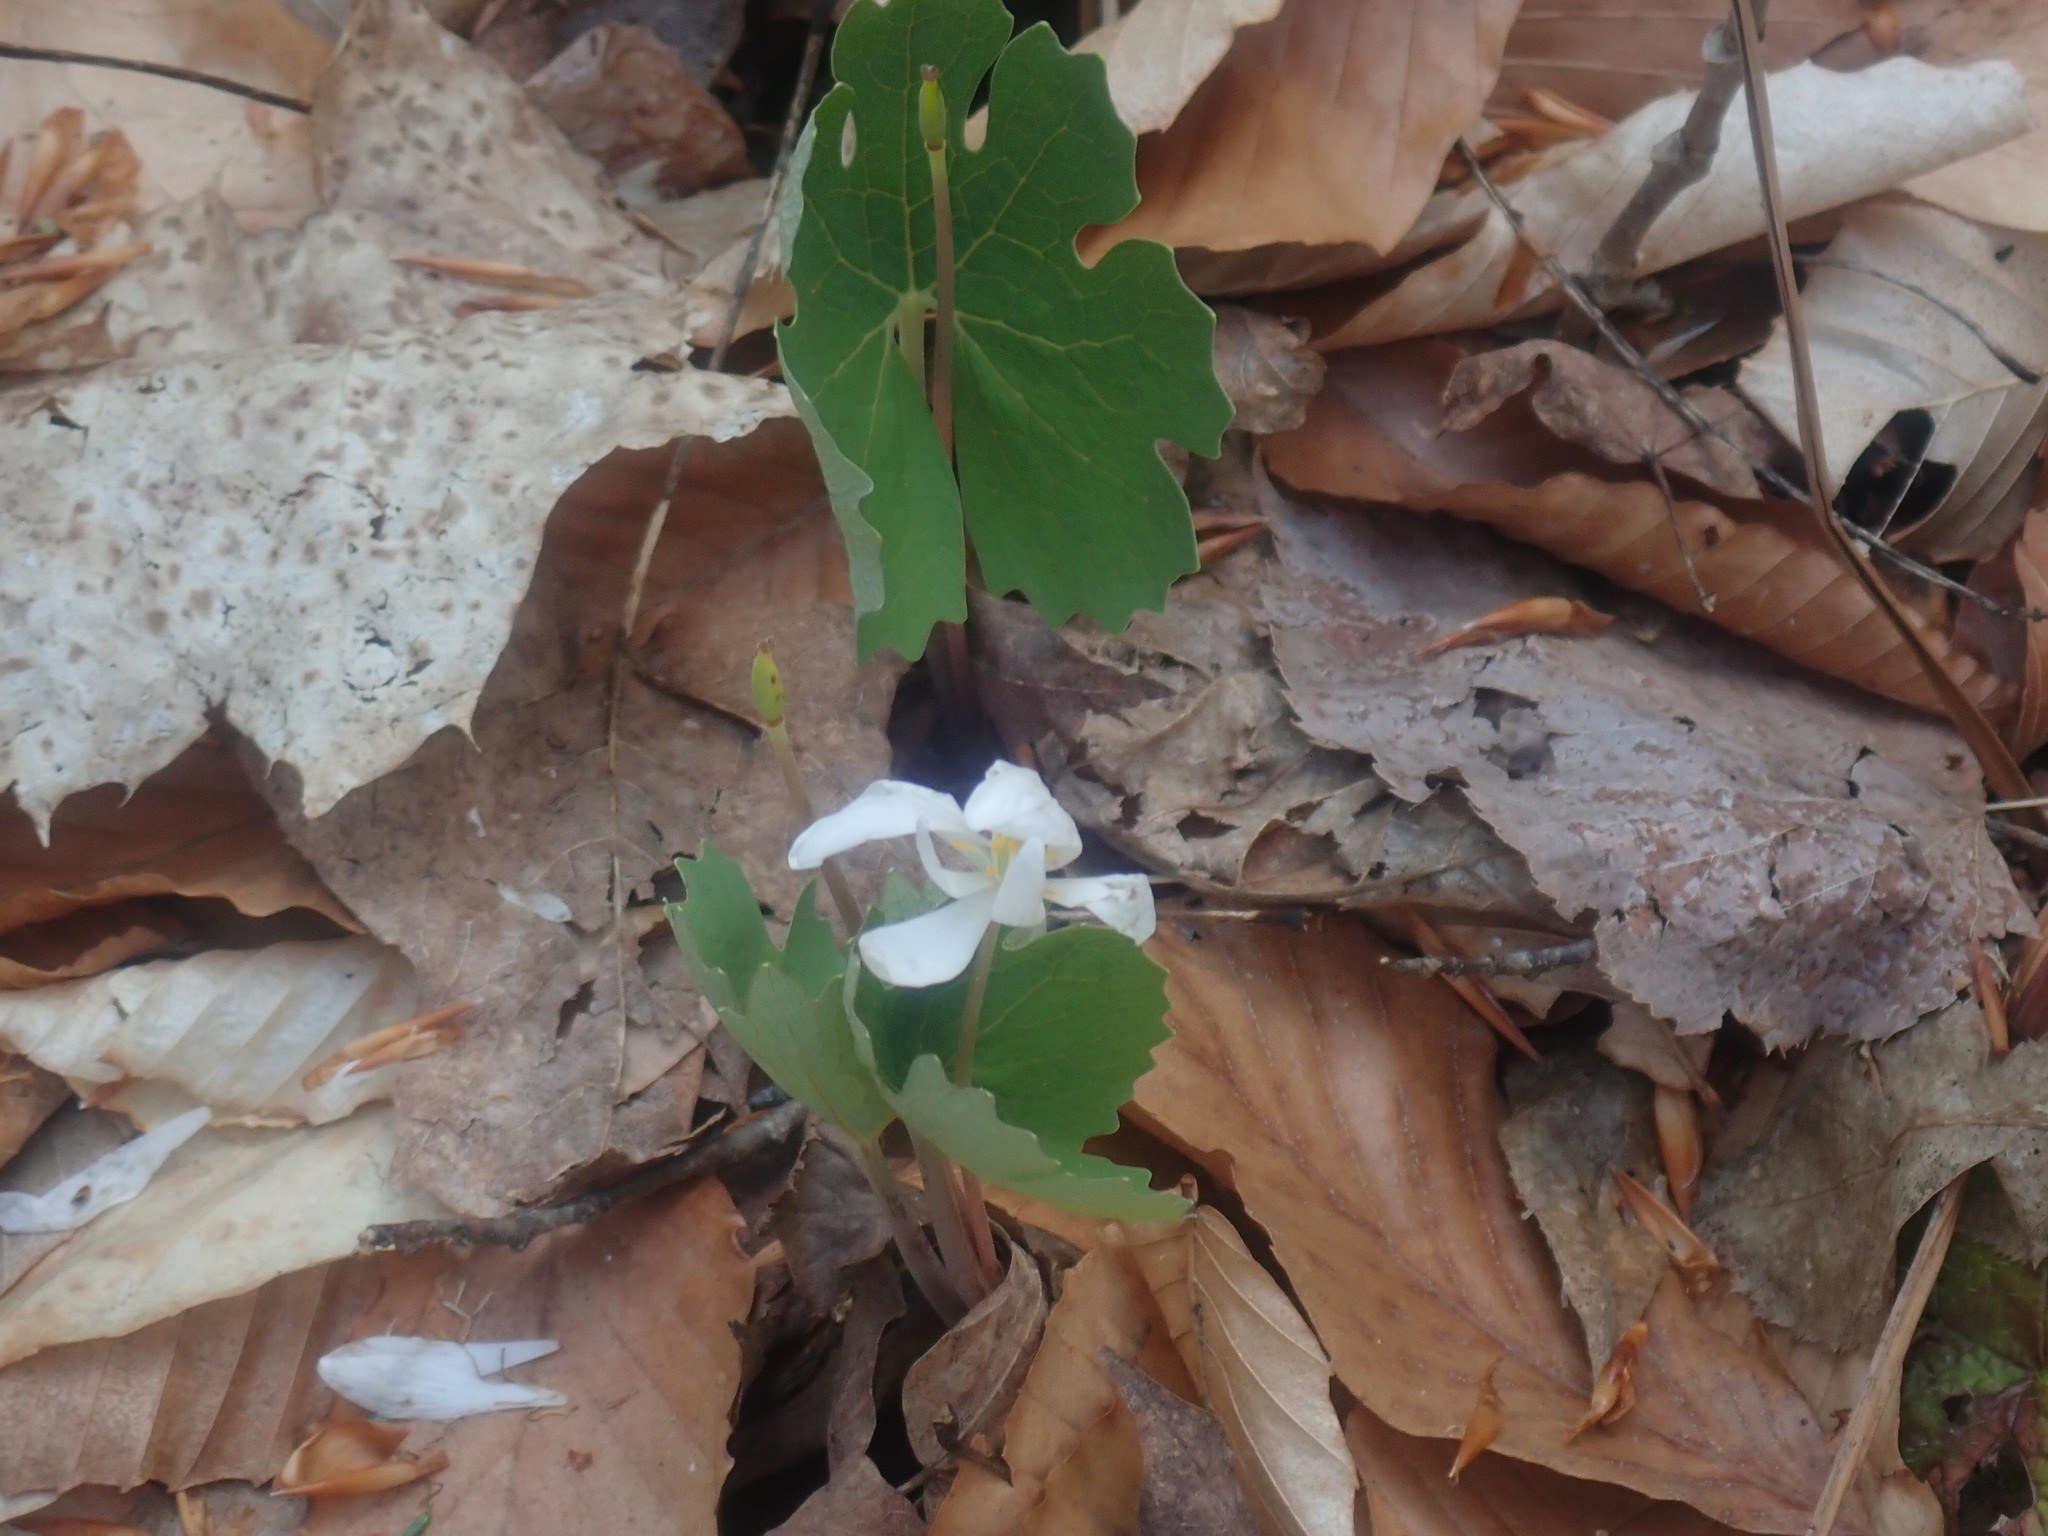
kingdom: Plantae
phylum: Tracheophyta
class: Magnoliopsida
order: Ranunculales
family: Papaveraceae
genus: Sanguinaria
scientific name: Sanguinaria canadensis
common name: Bloodroot
